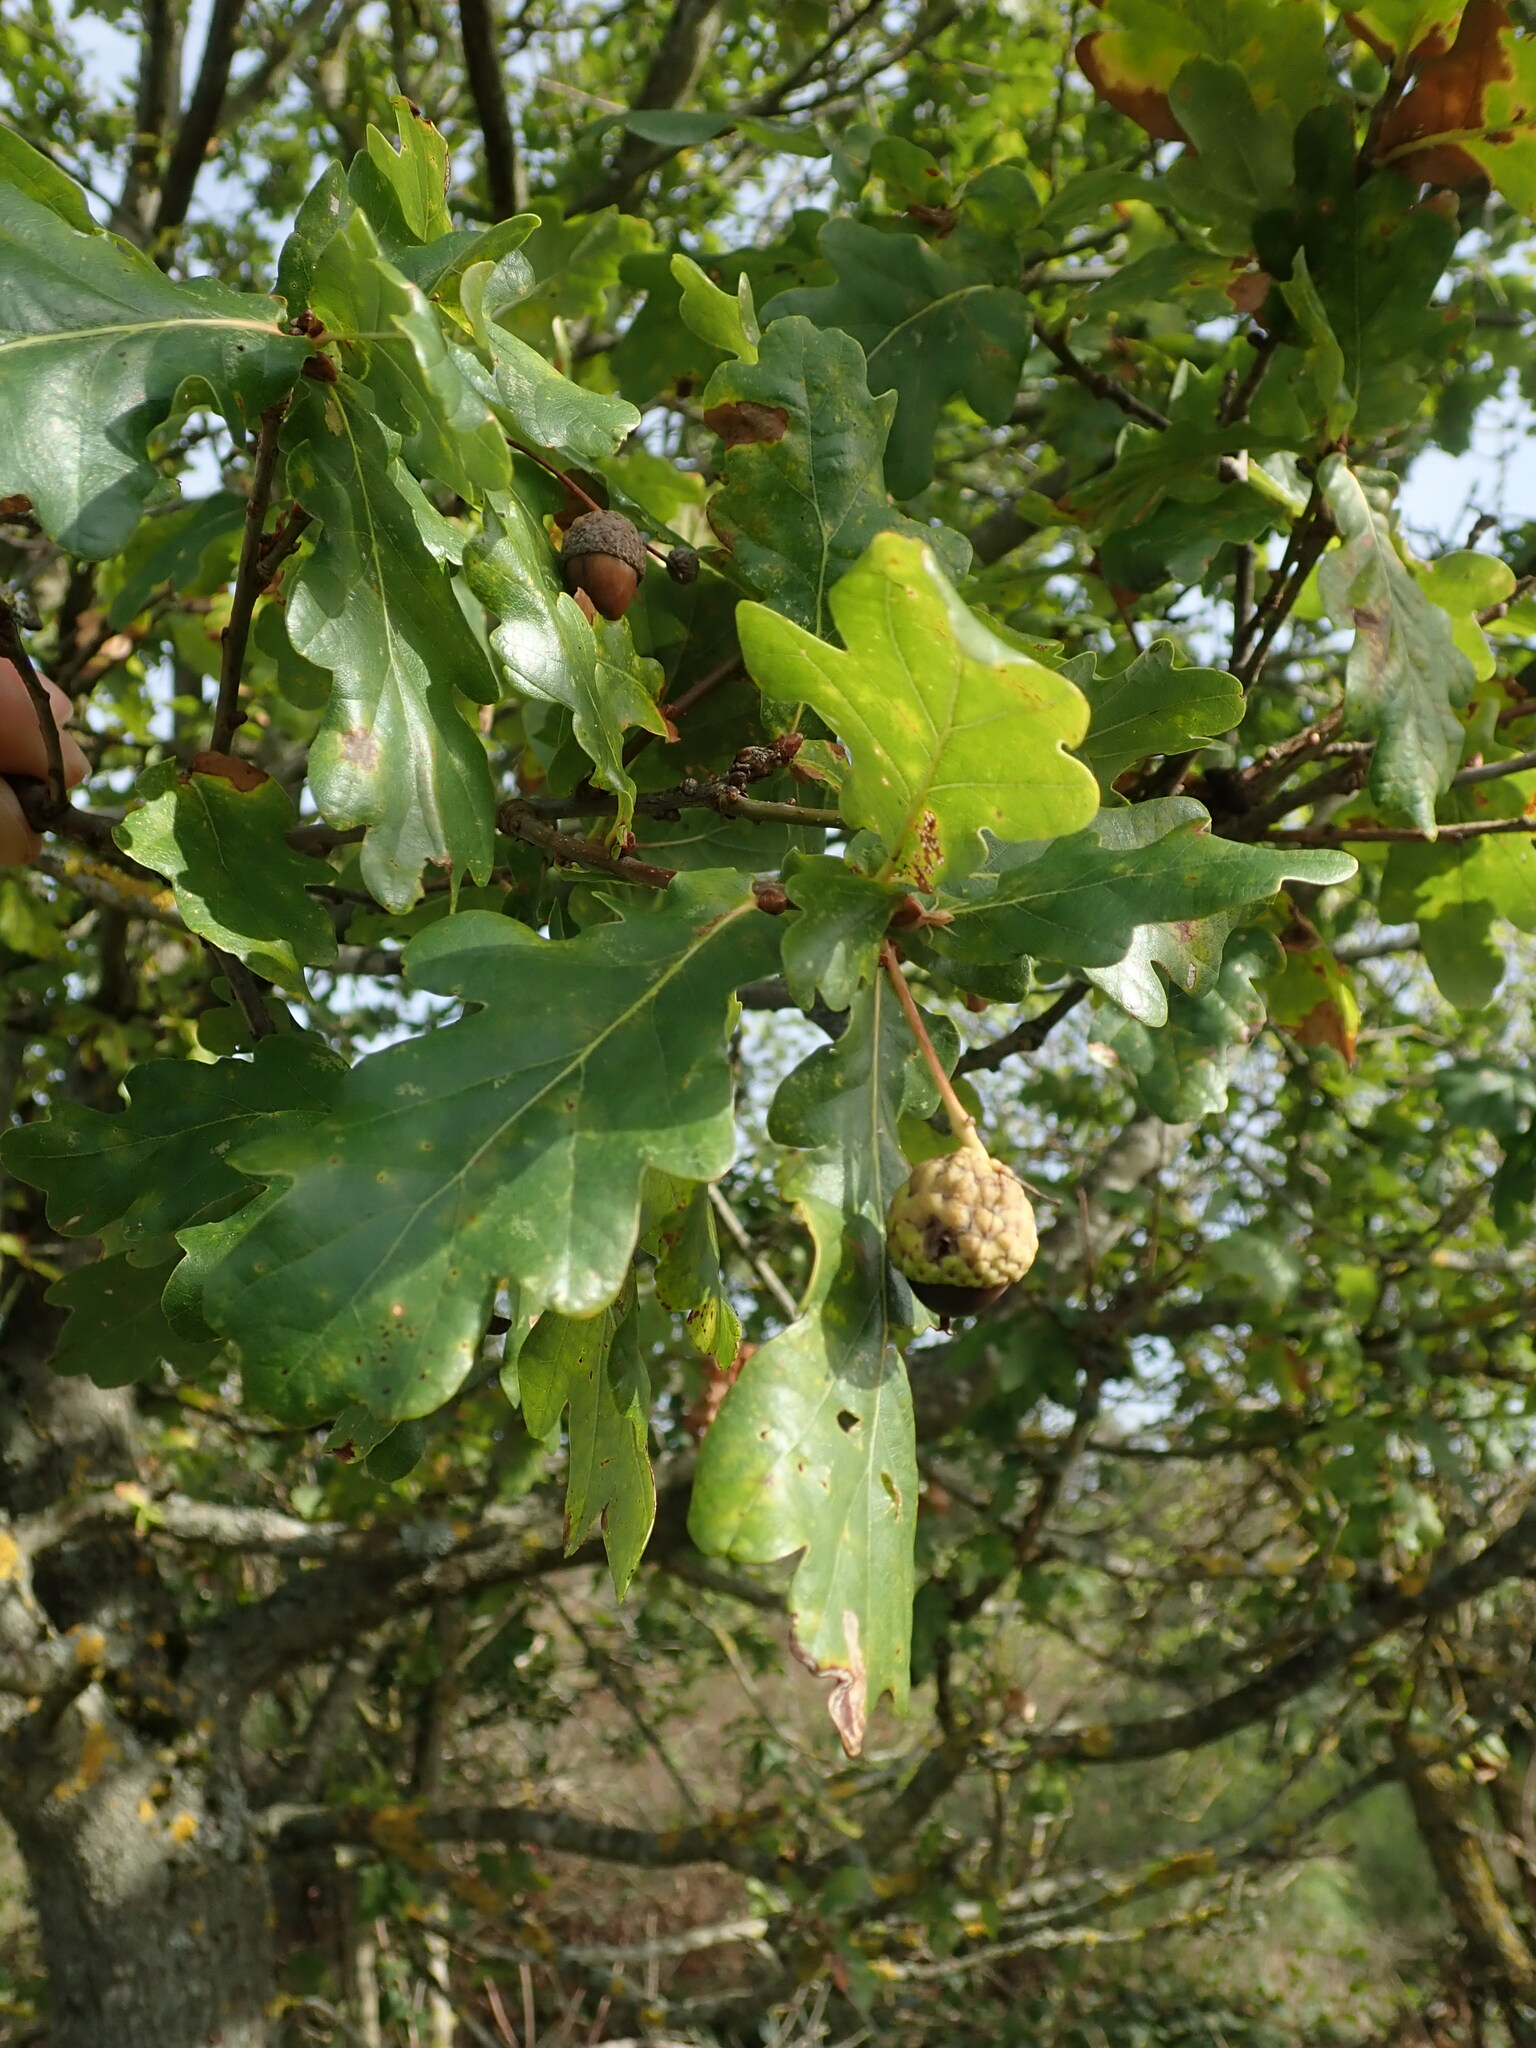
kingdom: Plantae
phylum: Tracheophyta
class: Magnoliopsida
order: Fagales
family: Fagaceae
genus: Quercus
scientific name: Quercus robur
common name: Pedunculate oak
